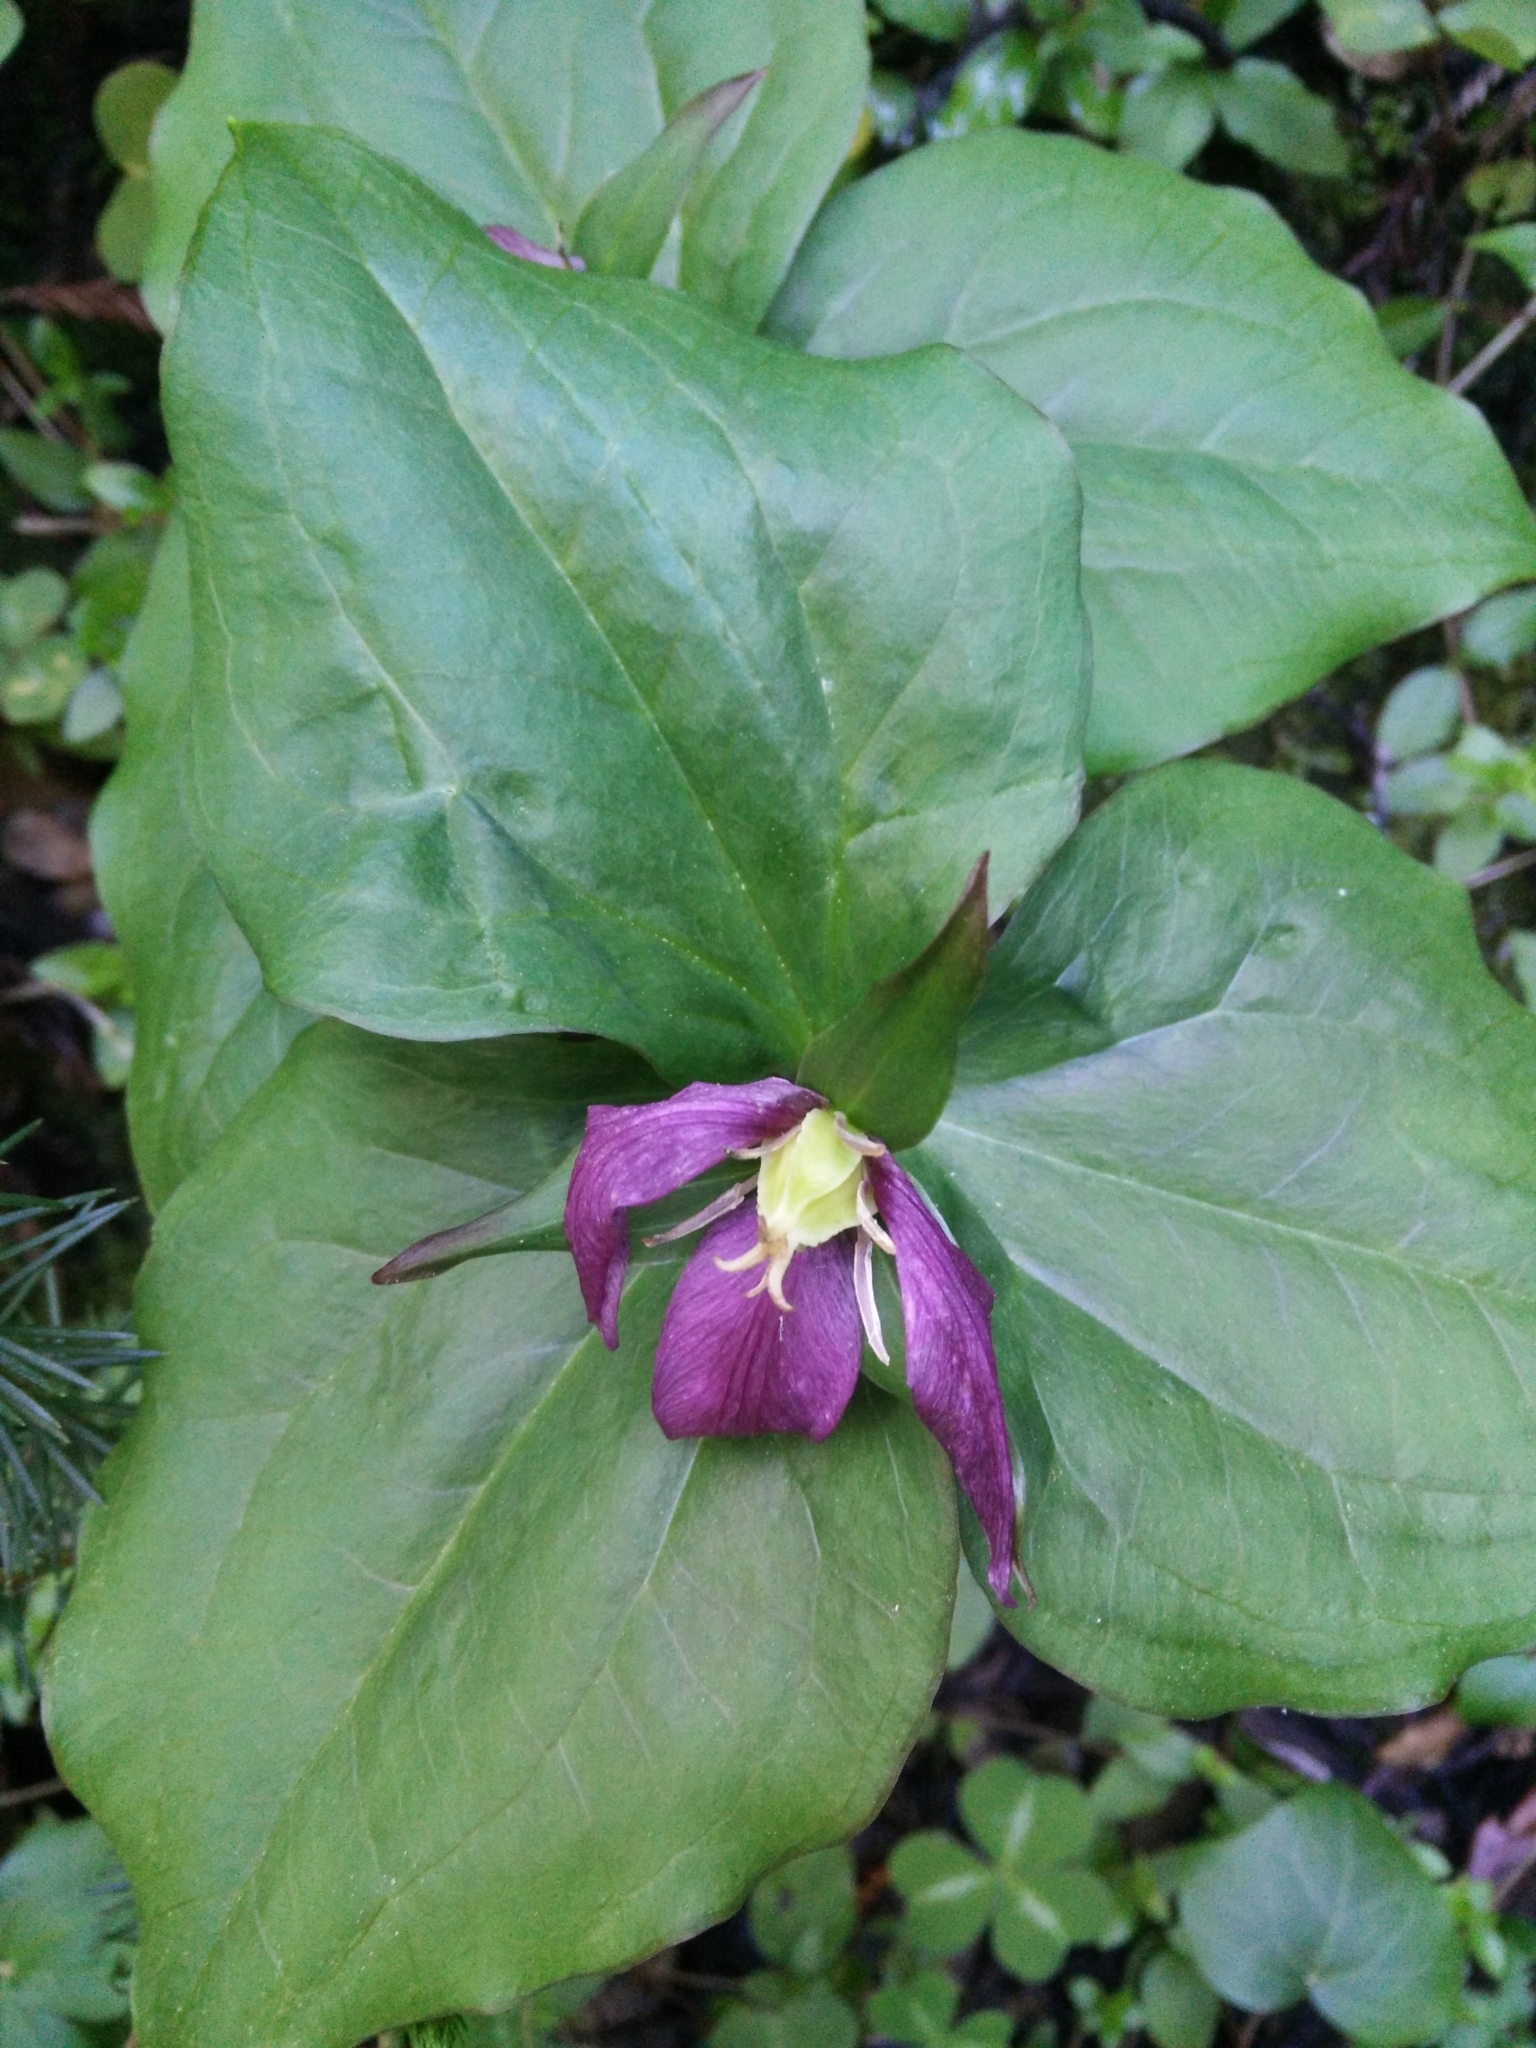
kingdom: Plantae
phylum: Tracheophyta
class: Liliopsida
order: Liliales
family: Melanthiaceae
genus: Trillium
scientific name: Trillium ovatum
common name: Pacific trillium
